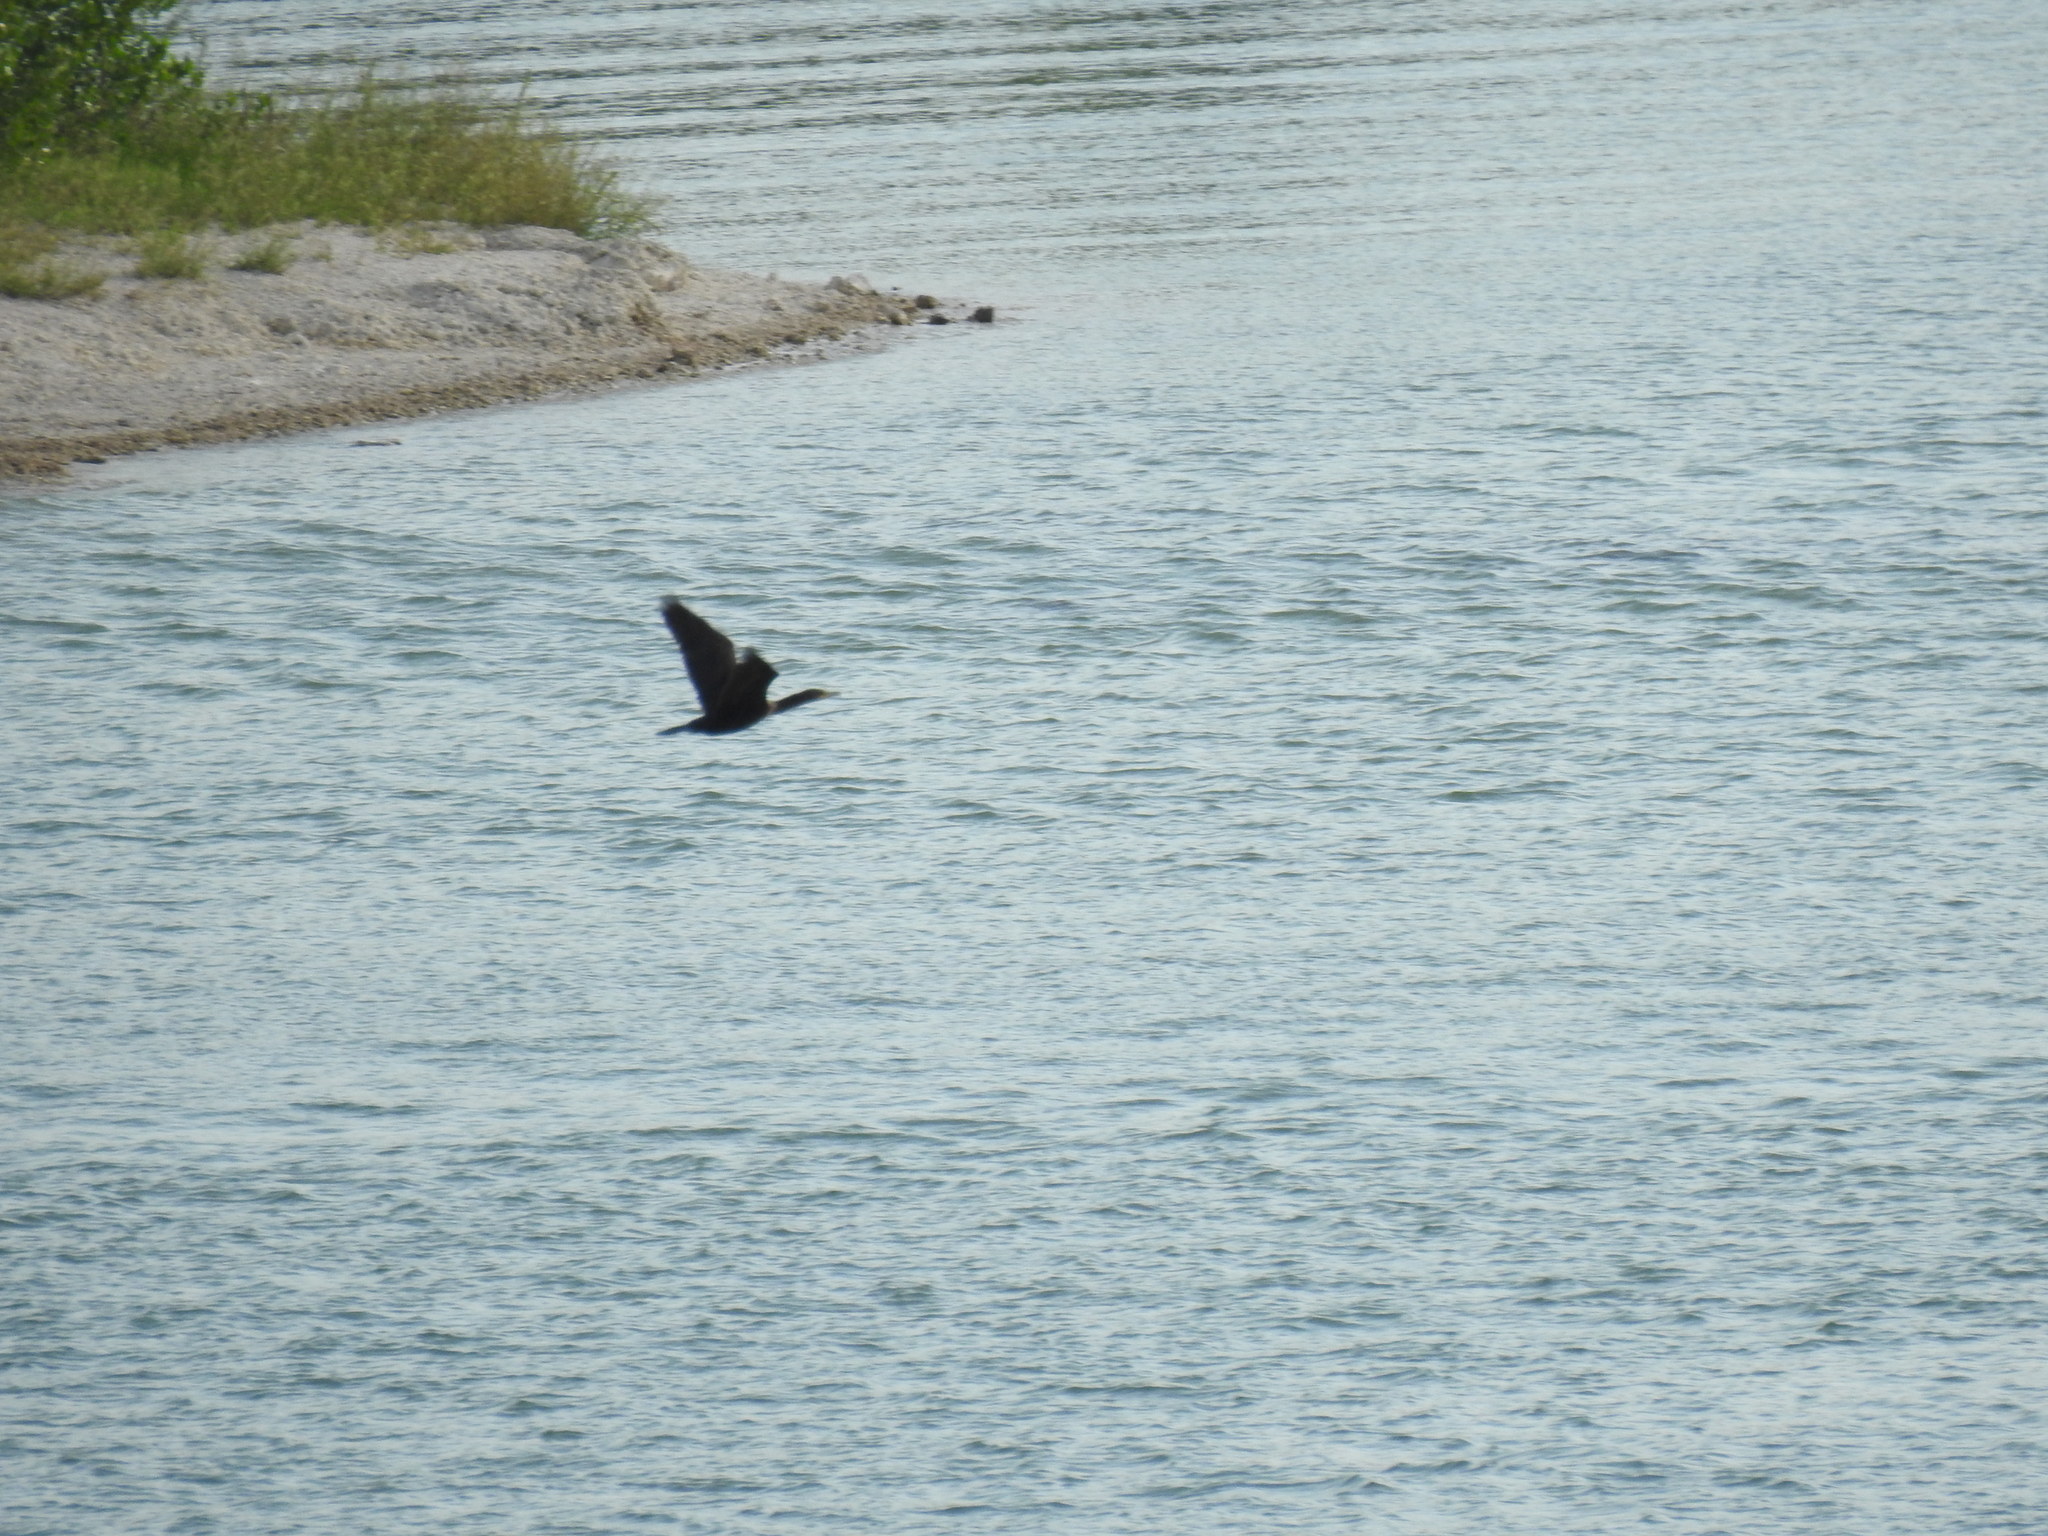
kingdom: Animalia
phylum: Chordata
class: Aves
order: Suliformes
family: Phalacrocoracidae
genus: Phalacrocorax
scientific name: Phalacrocorax auritus
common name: Double-crested cormorant
